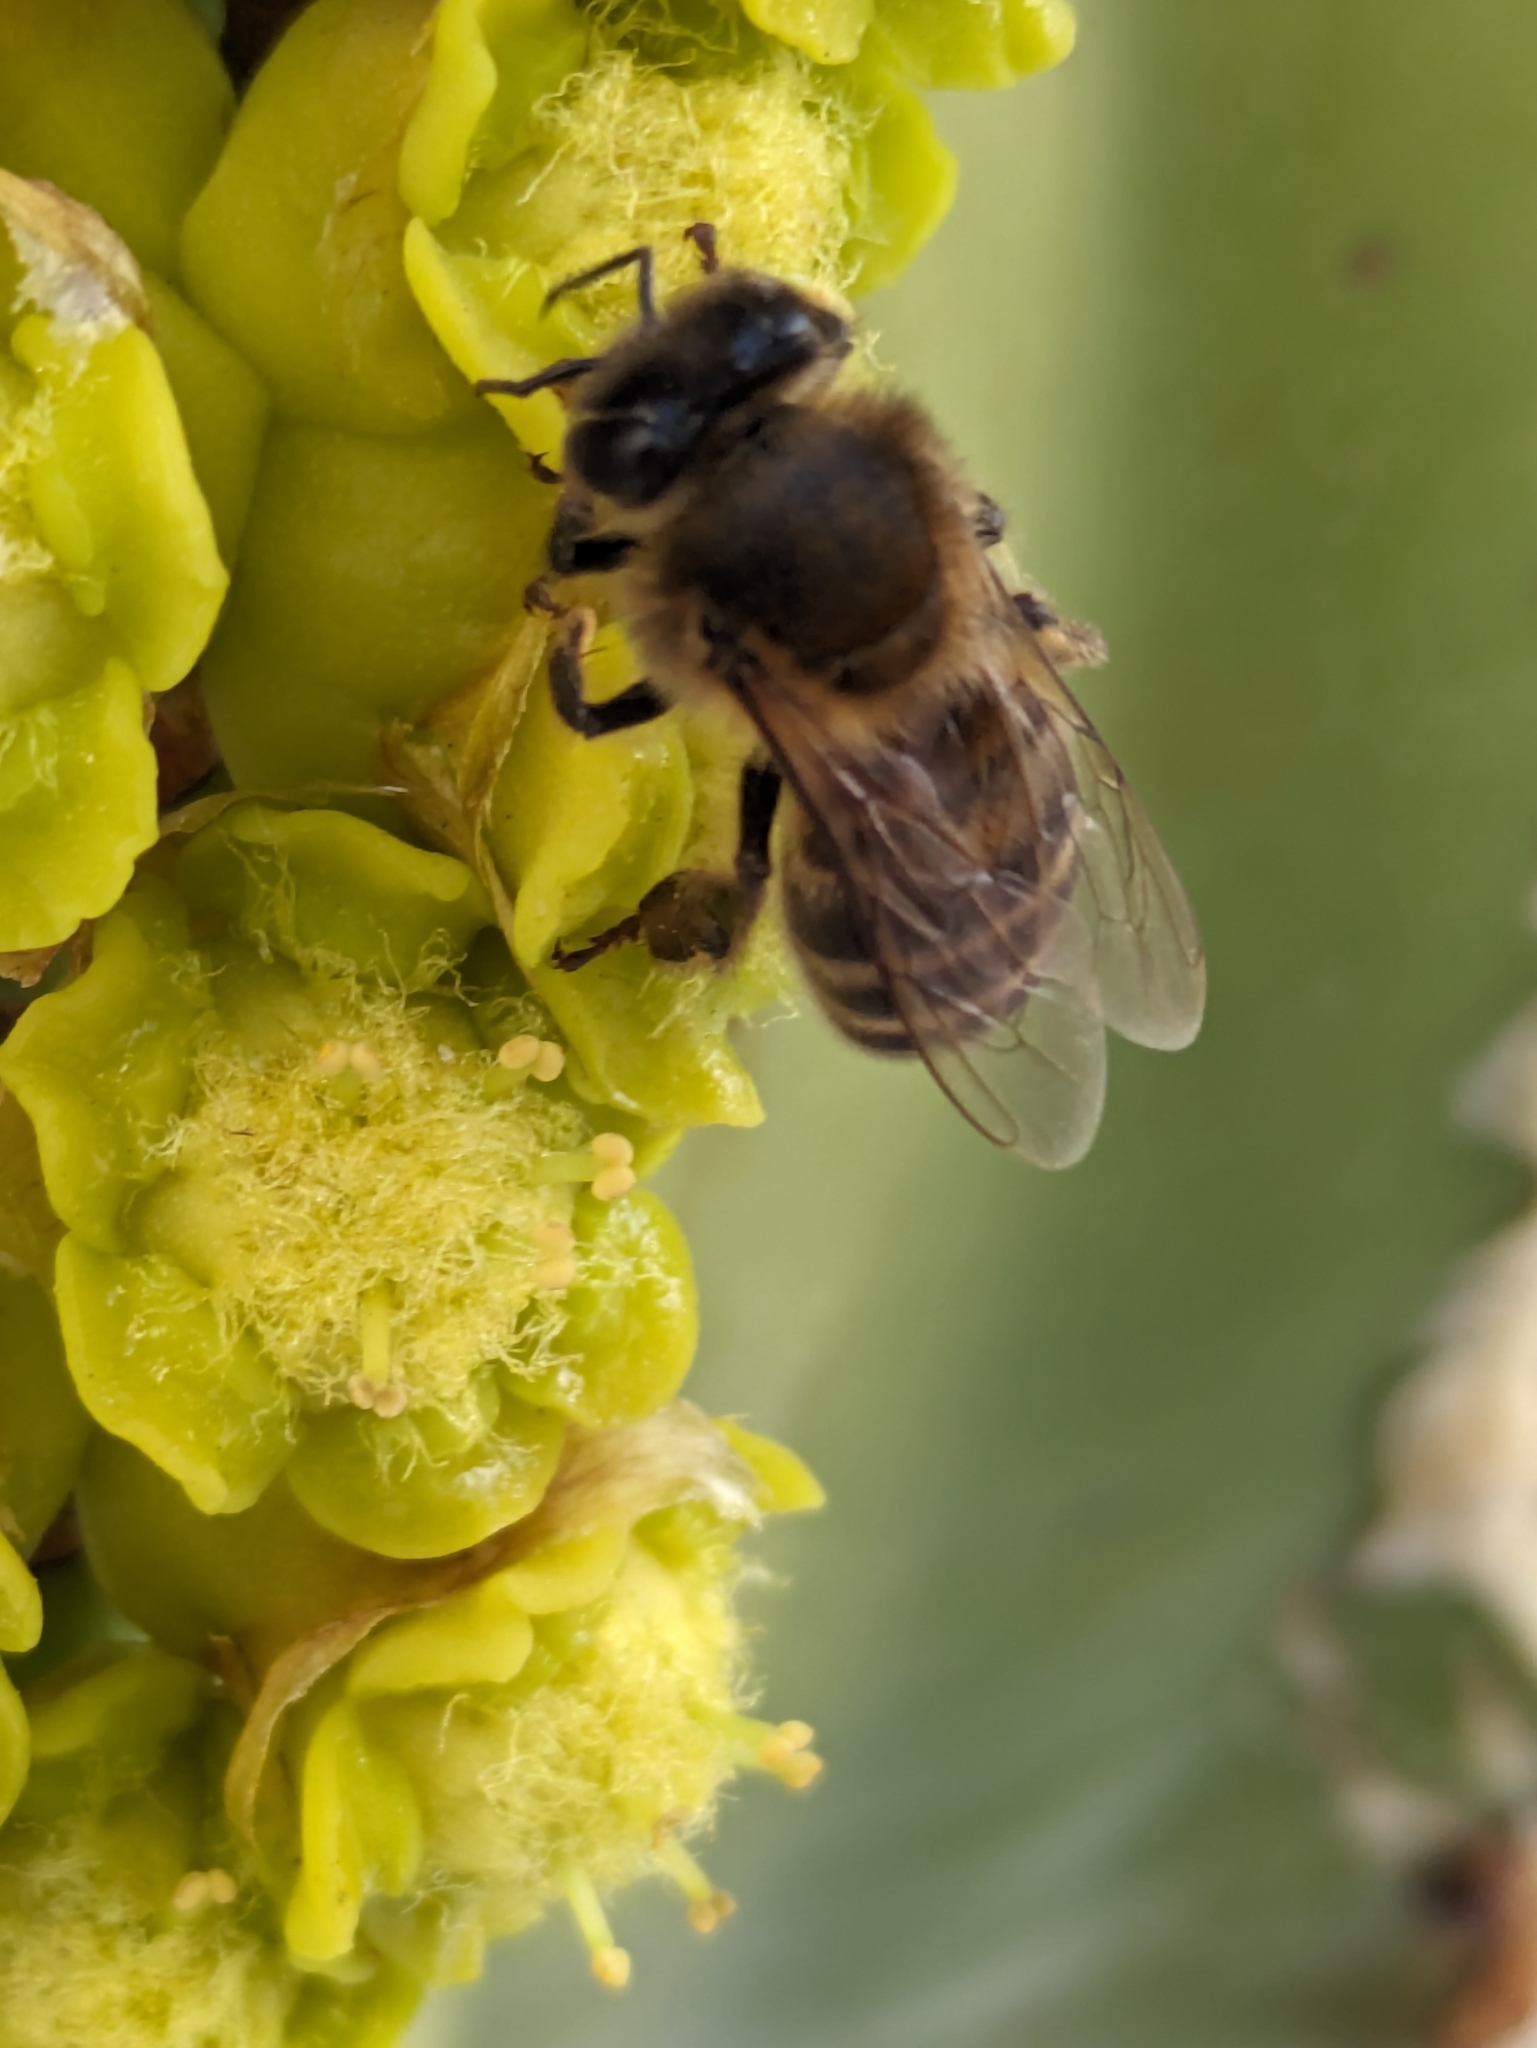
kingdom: Animalia
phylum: Arthropoda
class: Insecta
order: Hymenoptera
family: Apidae
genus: Apis
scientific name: Apis mellifera
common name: Honey bee
